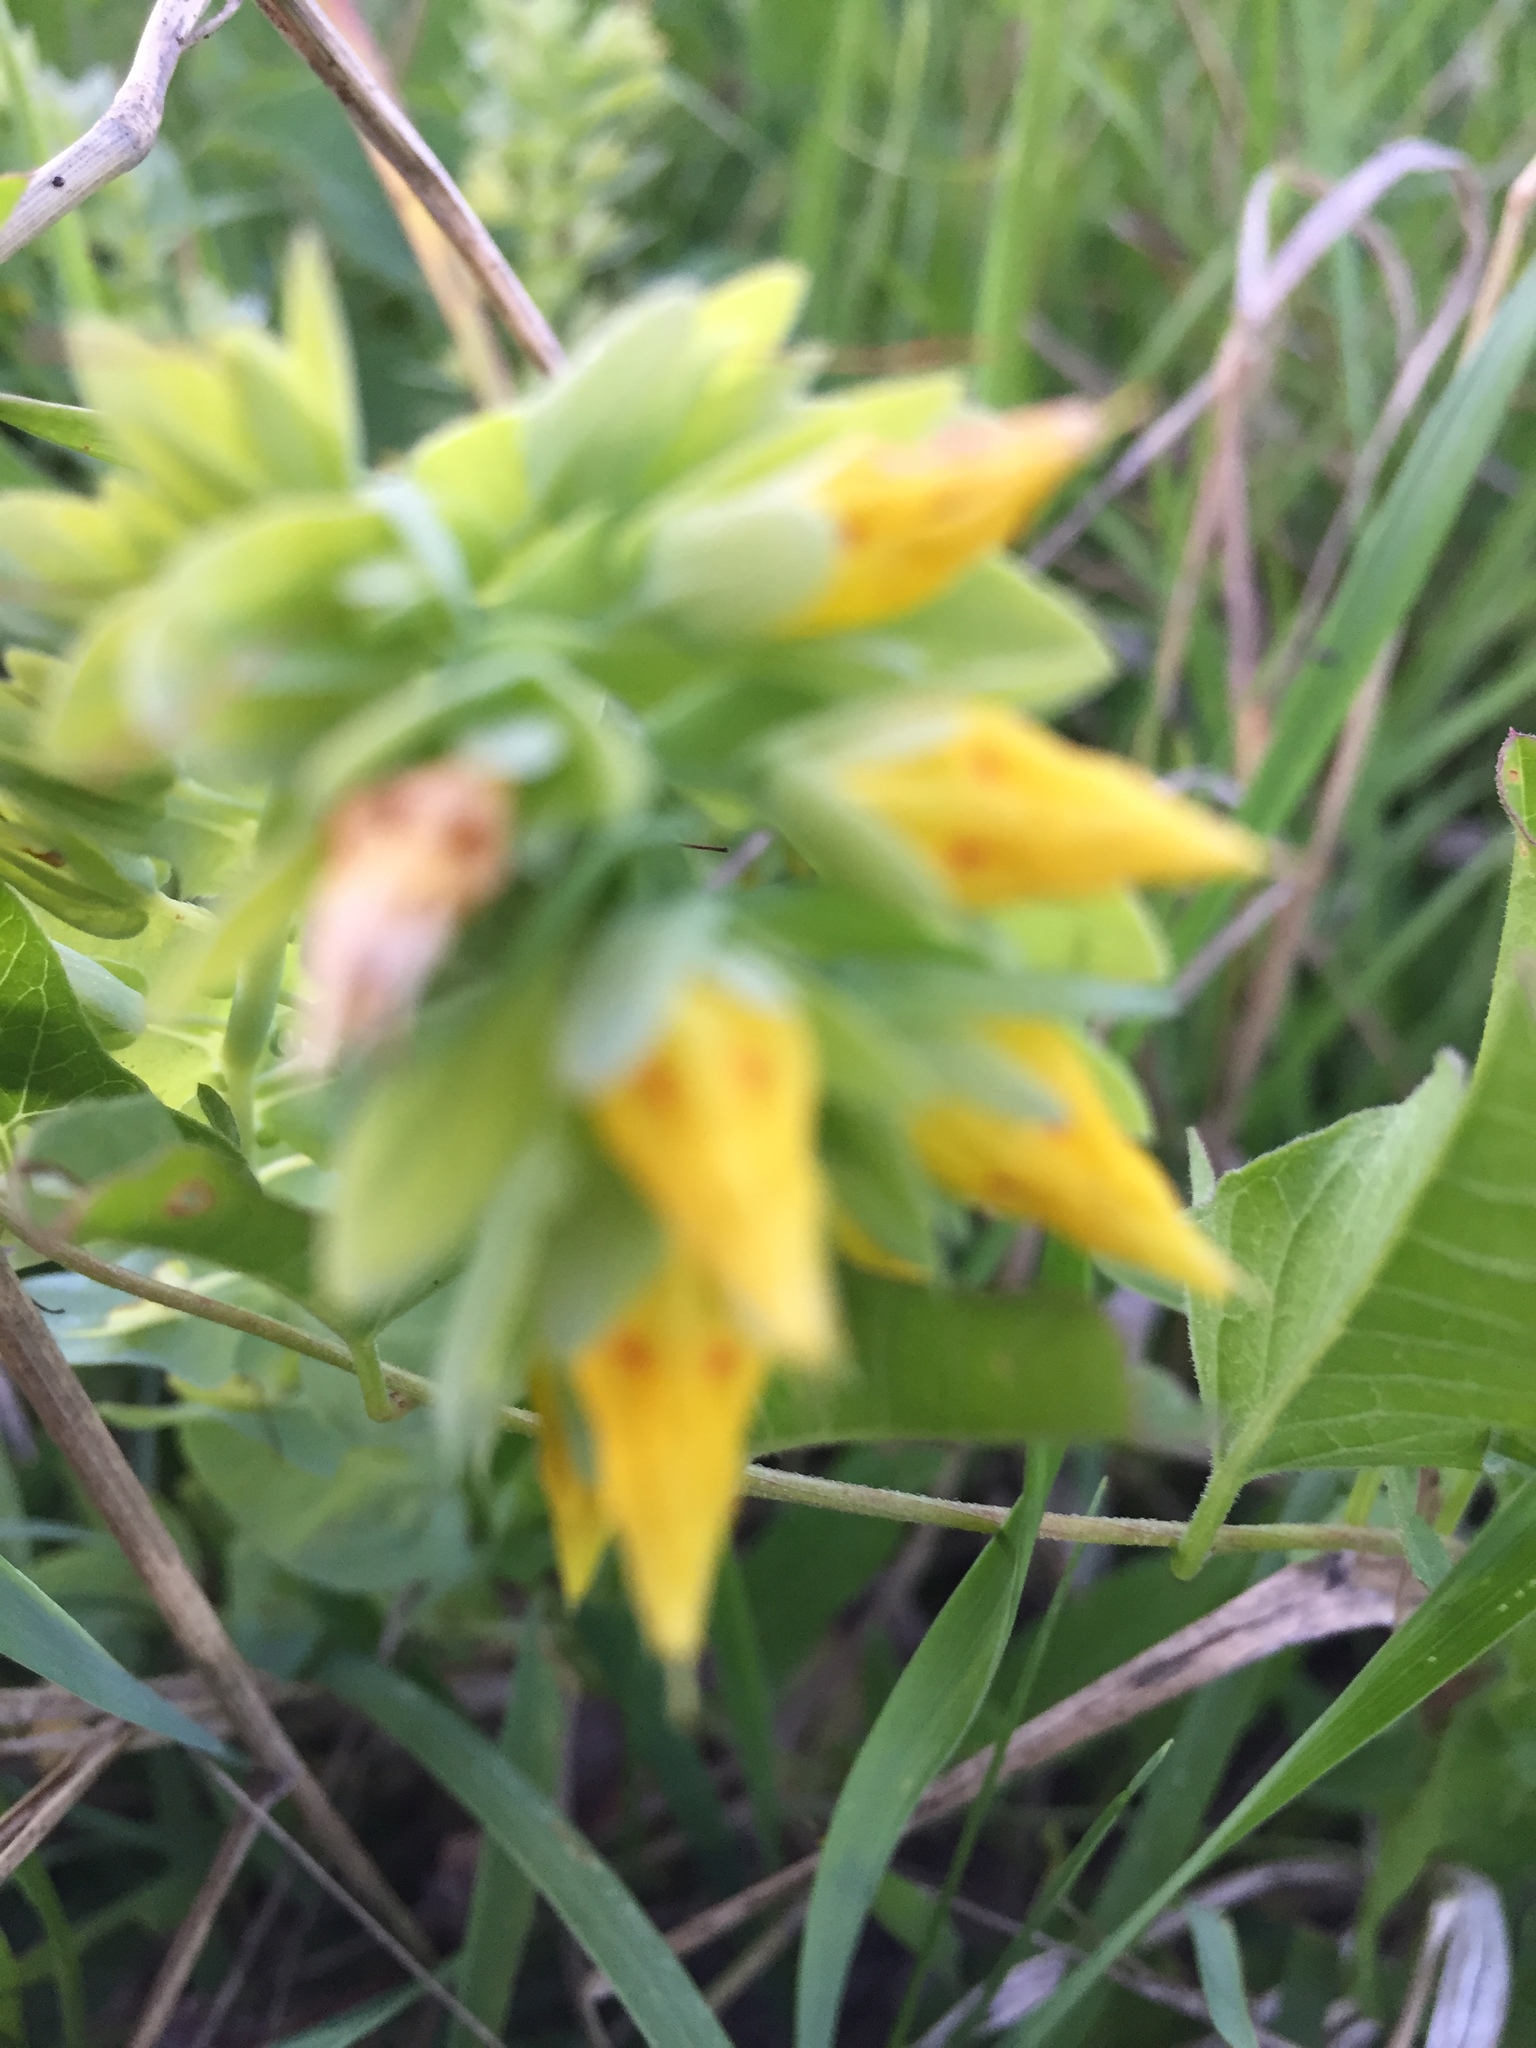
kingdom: Plantae
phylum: Tracheophyta
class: Magnoliopsida
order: Boraginales
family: Boraginaceae
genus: Cerinthe
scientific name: Cerinthe minor
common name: Lesser honeywort
